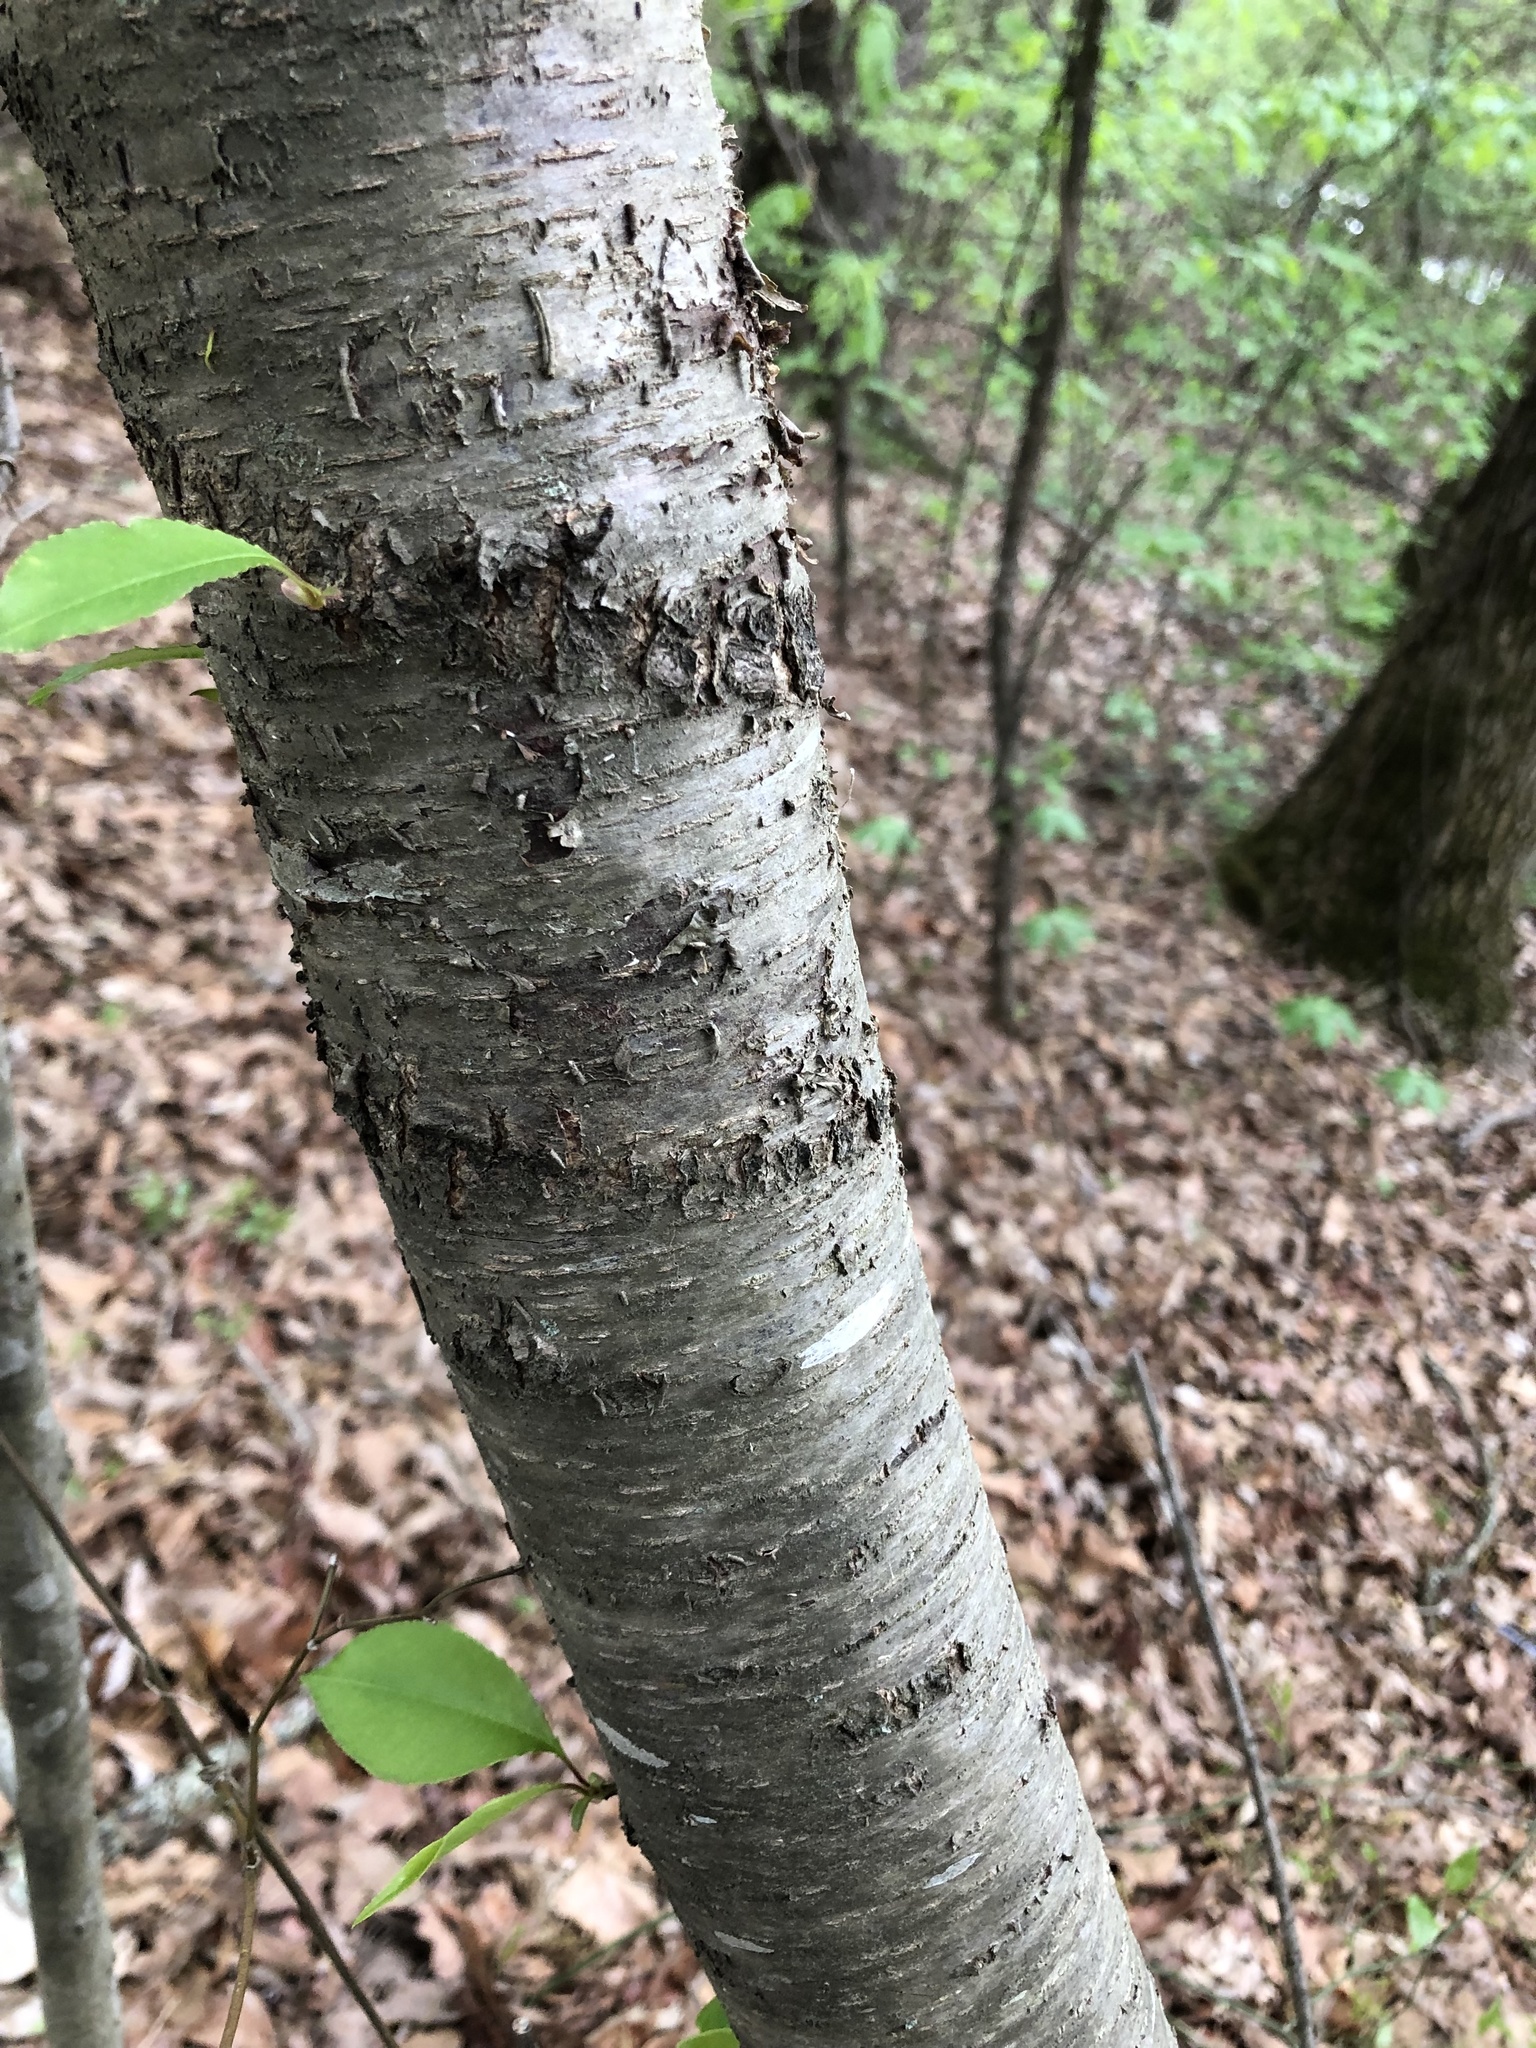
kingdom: Plantae
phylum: Tracheophyta
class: Magnoliopsida
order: Rosales
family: Rosaceae
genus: Prunus
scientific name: Prunus serotina
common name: Black cherry
